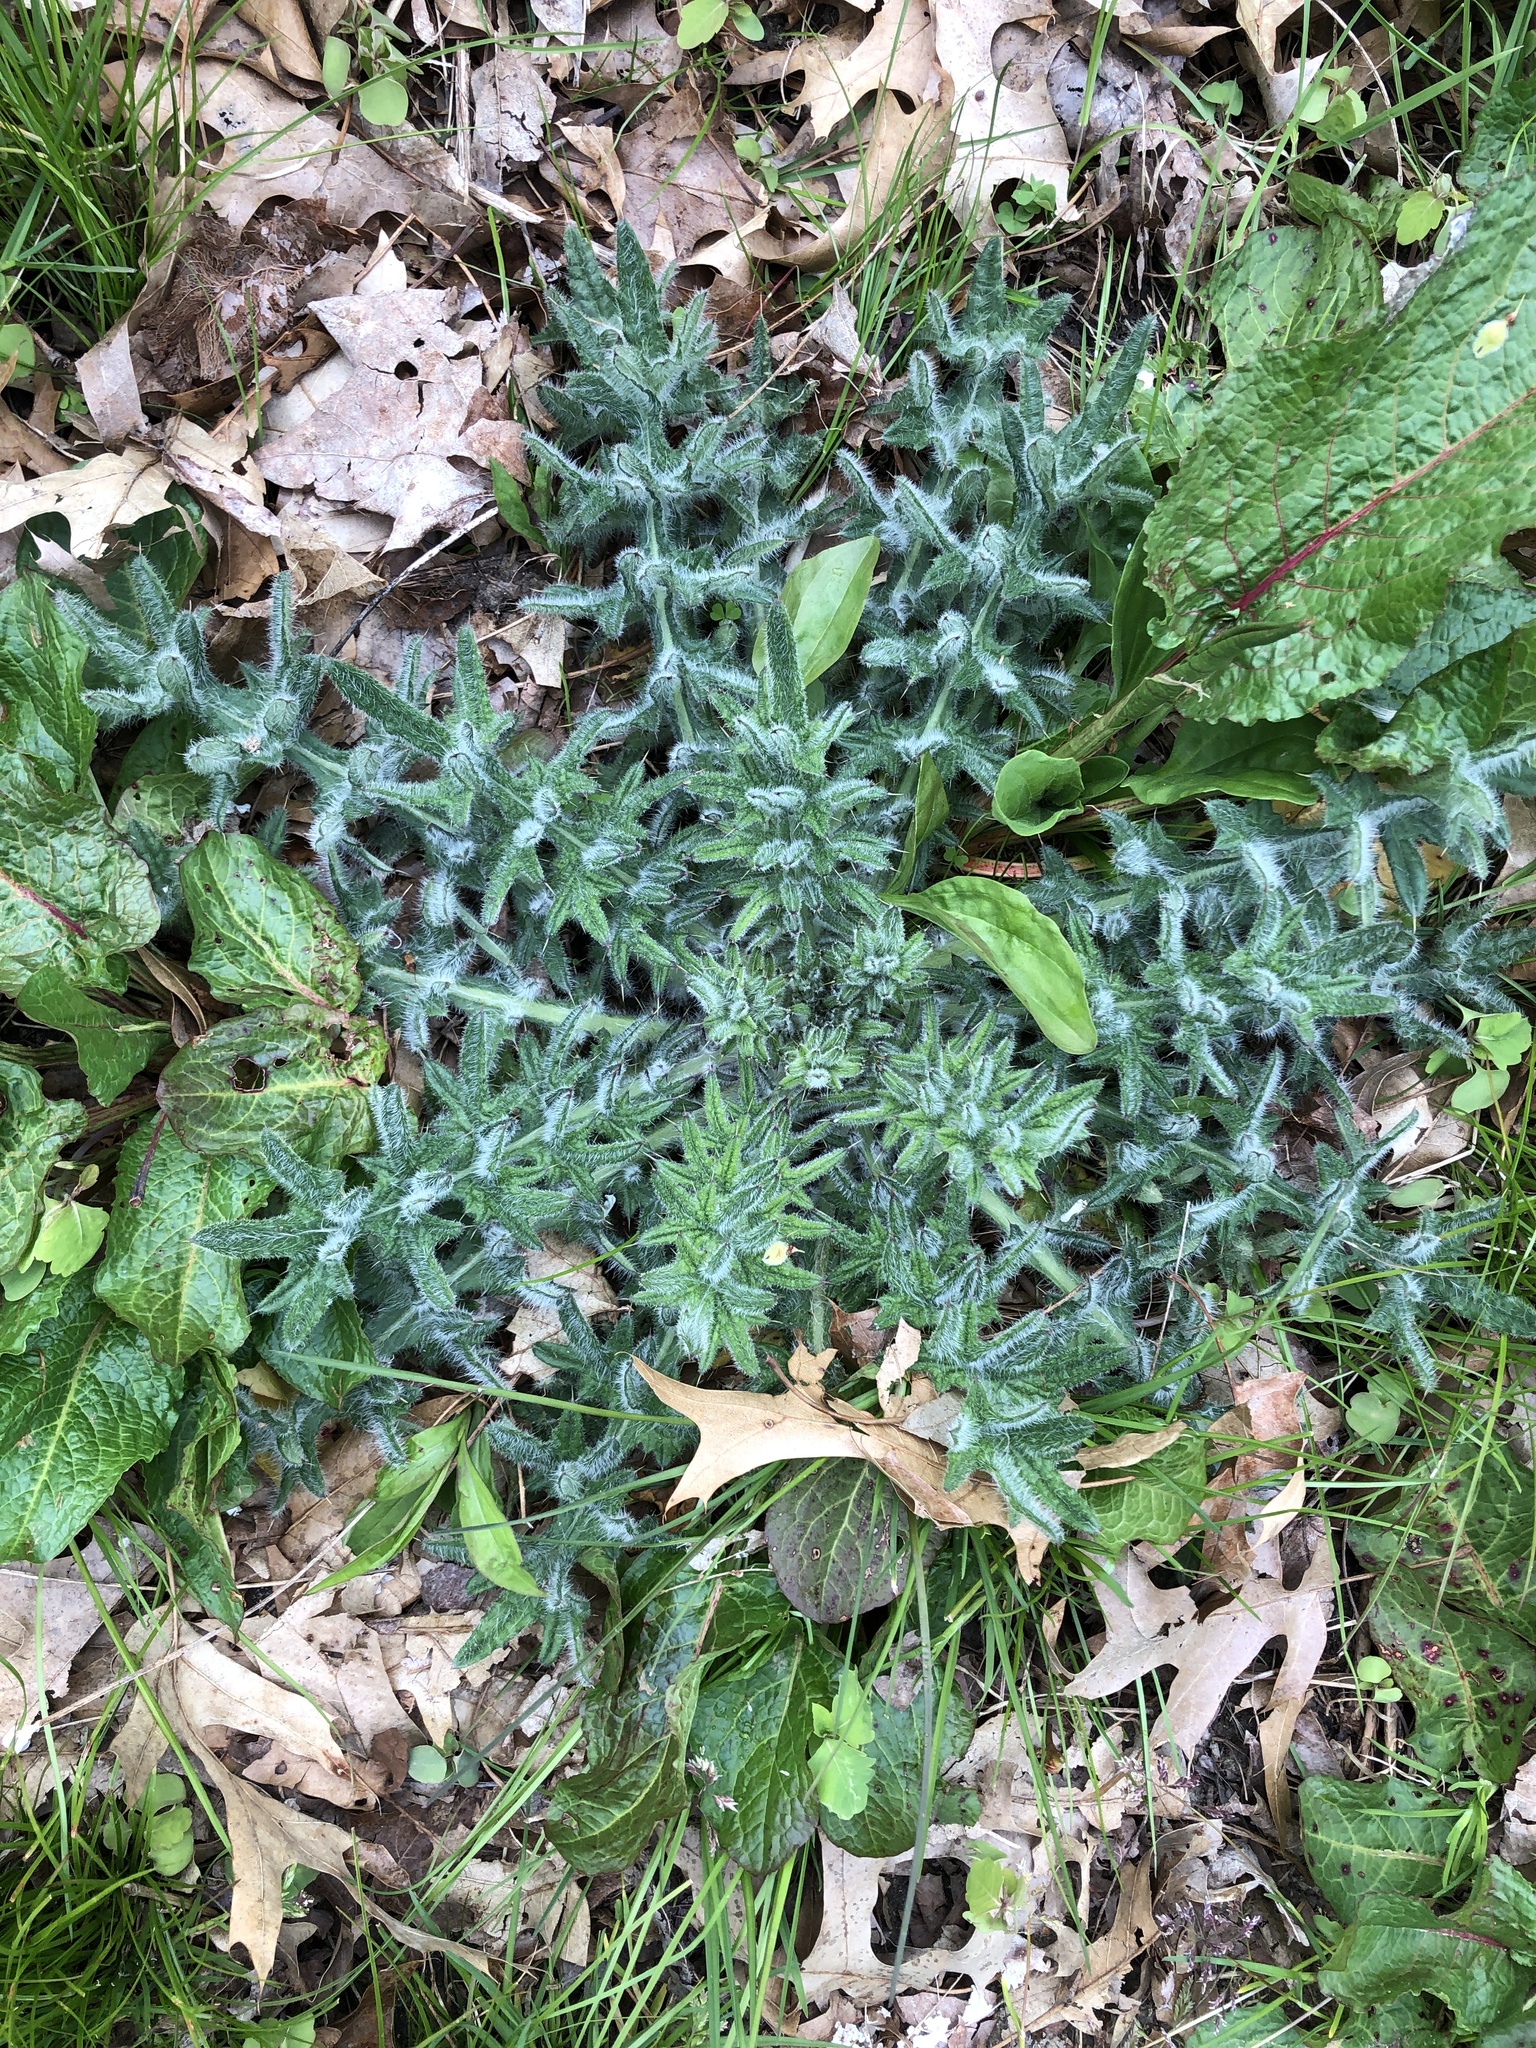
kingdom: Plantae
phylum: Tracheophyta
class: Magnoliopsida
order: Asterales
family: Asteraceae
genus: Cirsium
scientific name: Cirsium vulgare
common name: Bull thistle
